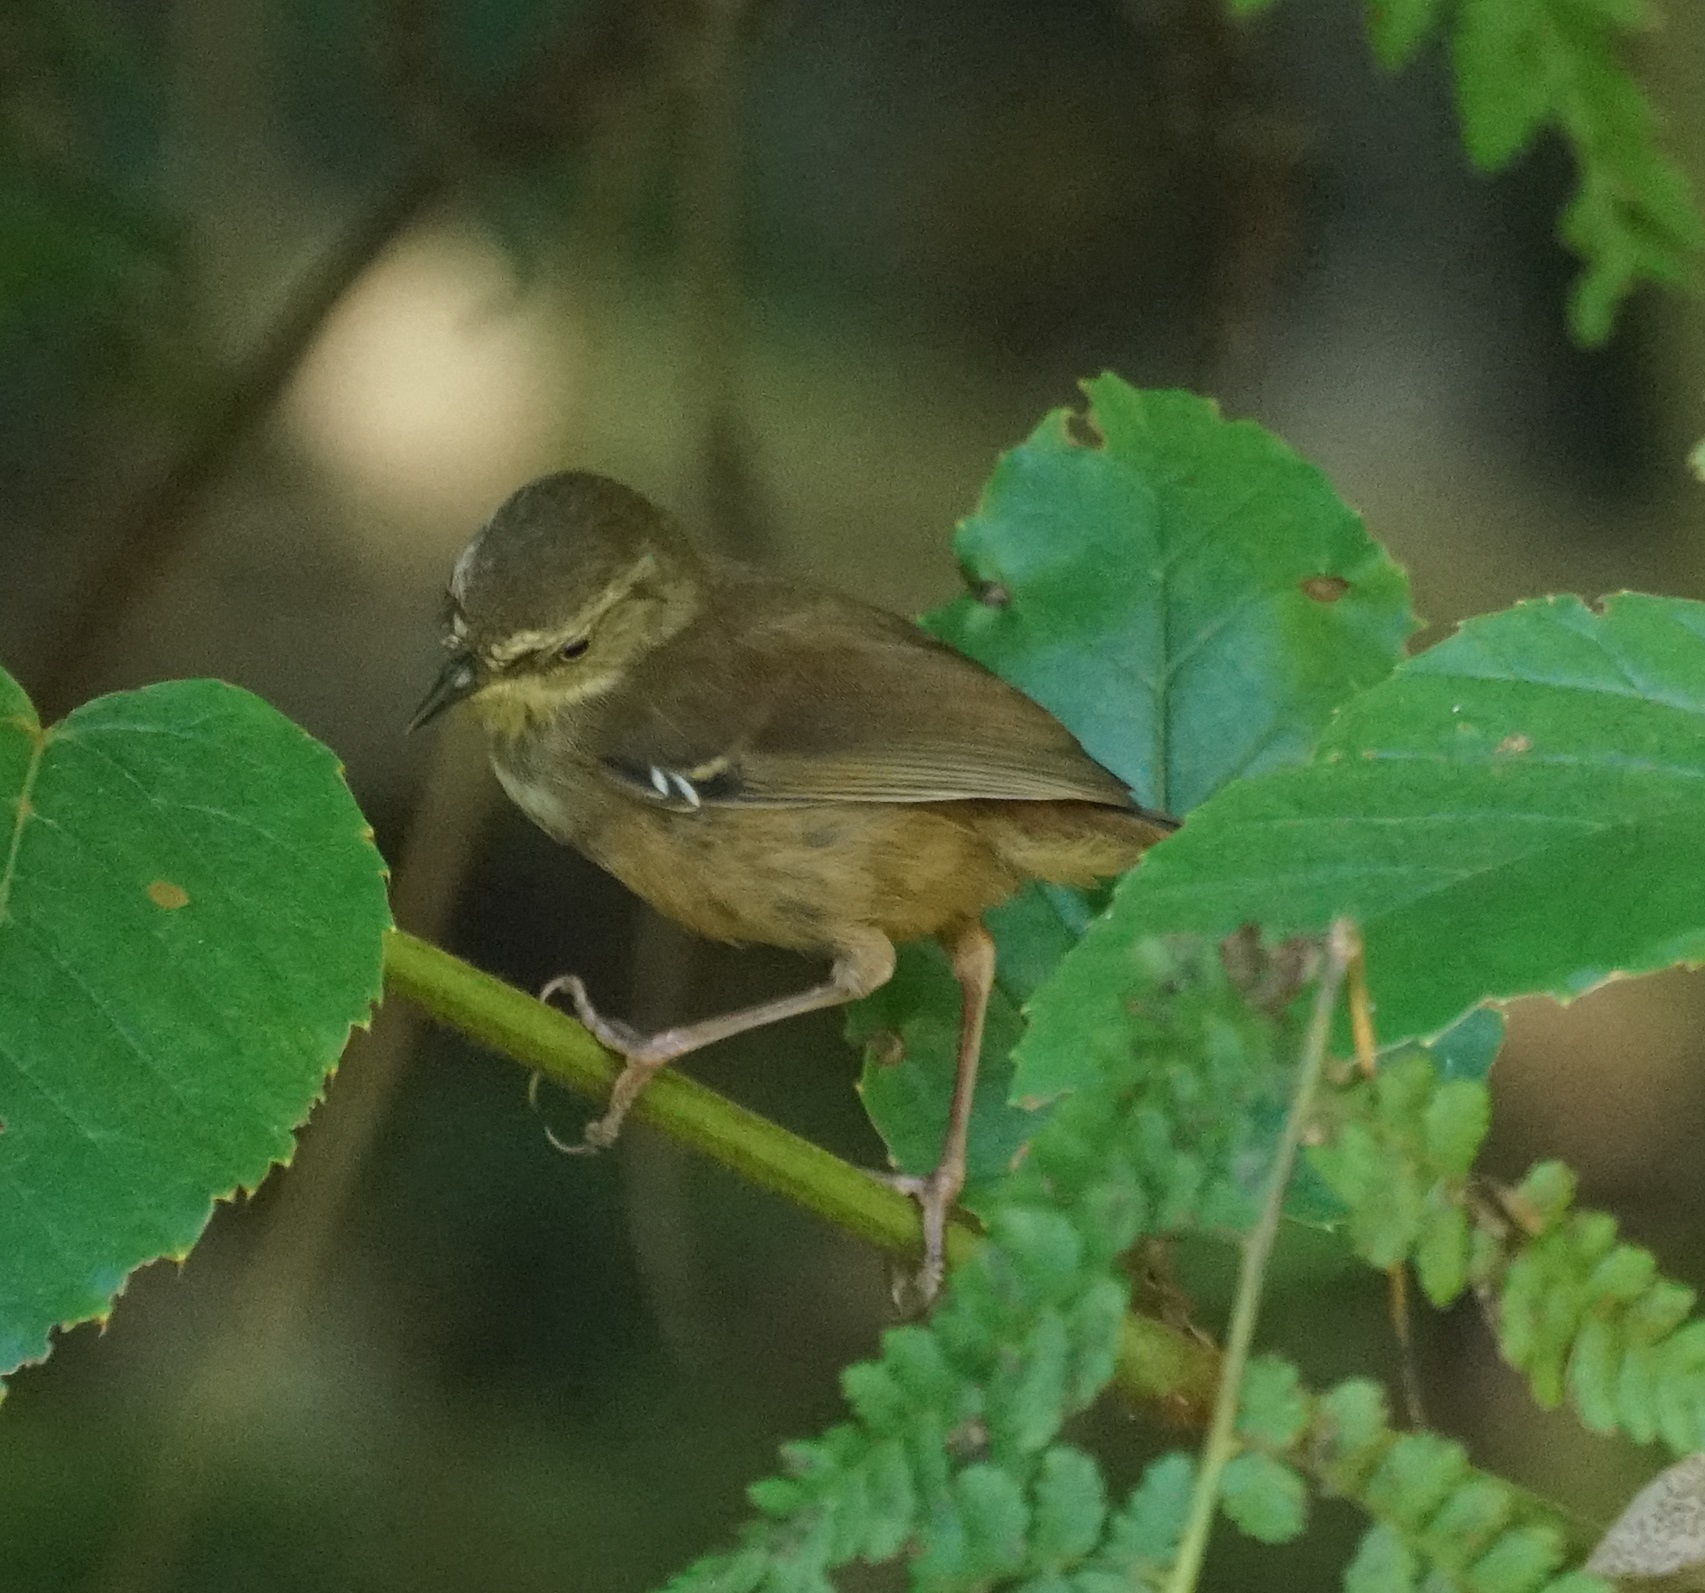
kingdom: Animalia
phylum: Chordata
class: Aves
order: Passeriformes
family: Acanthizidae
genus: Sericornis
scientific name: Sericornis frontalis
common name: White-browed scrubwren
